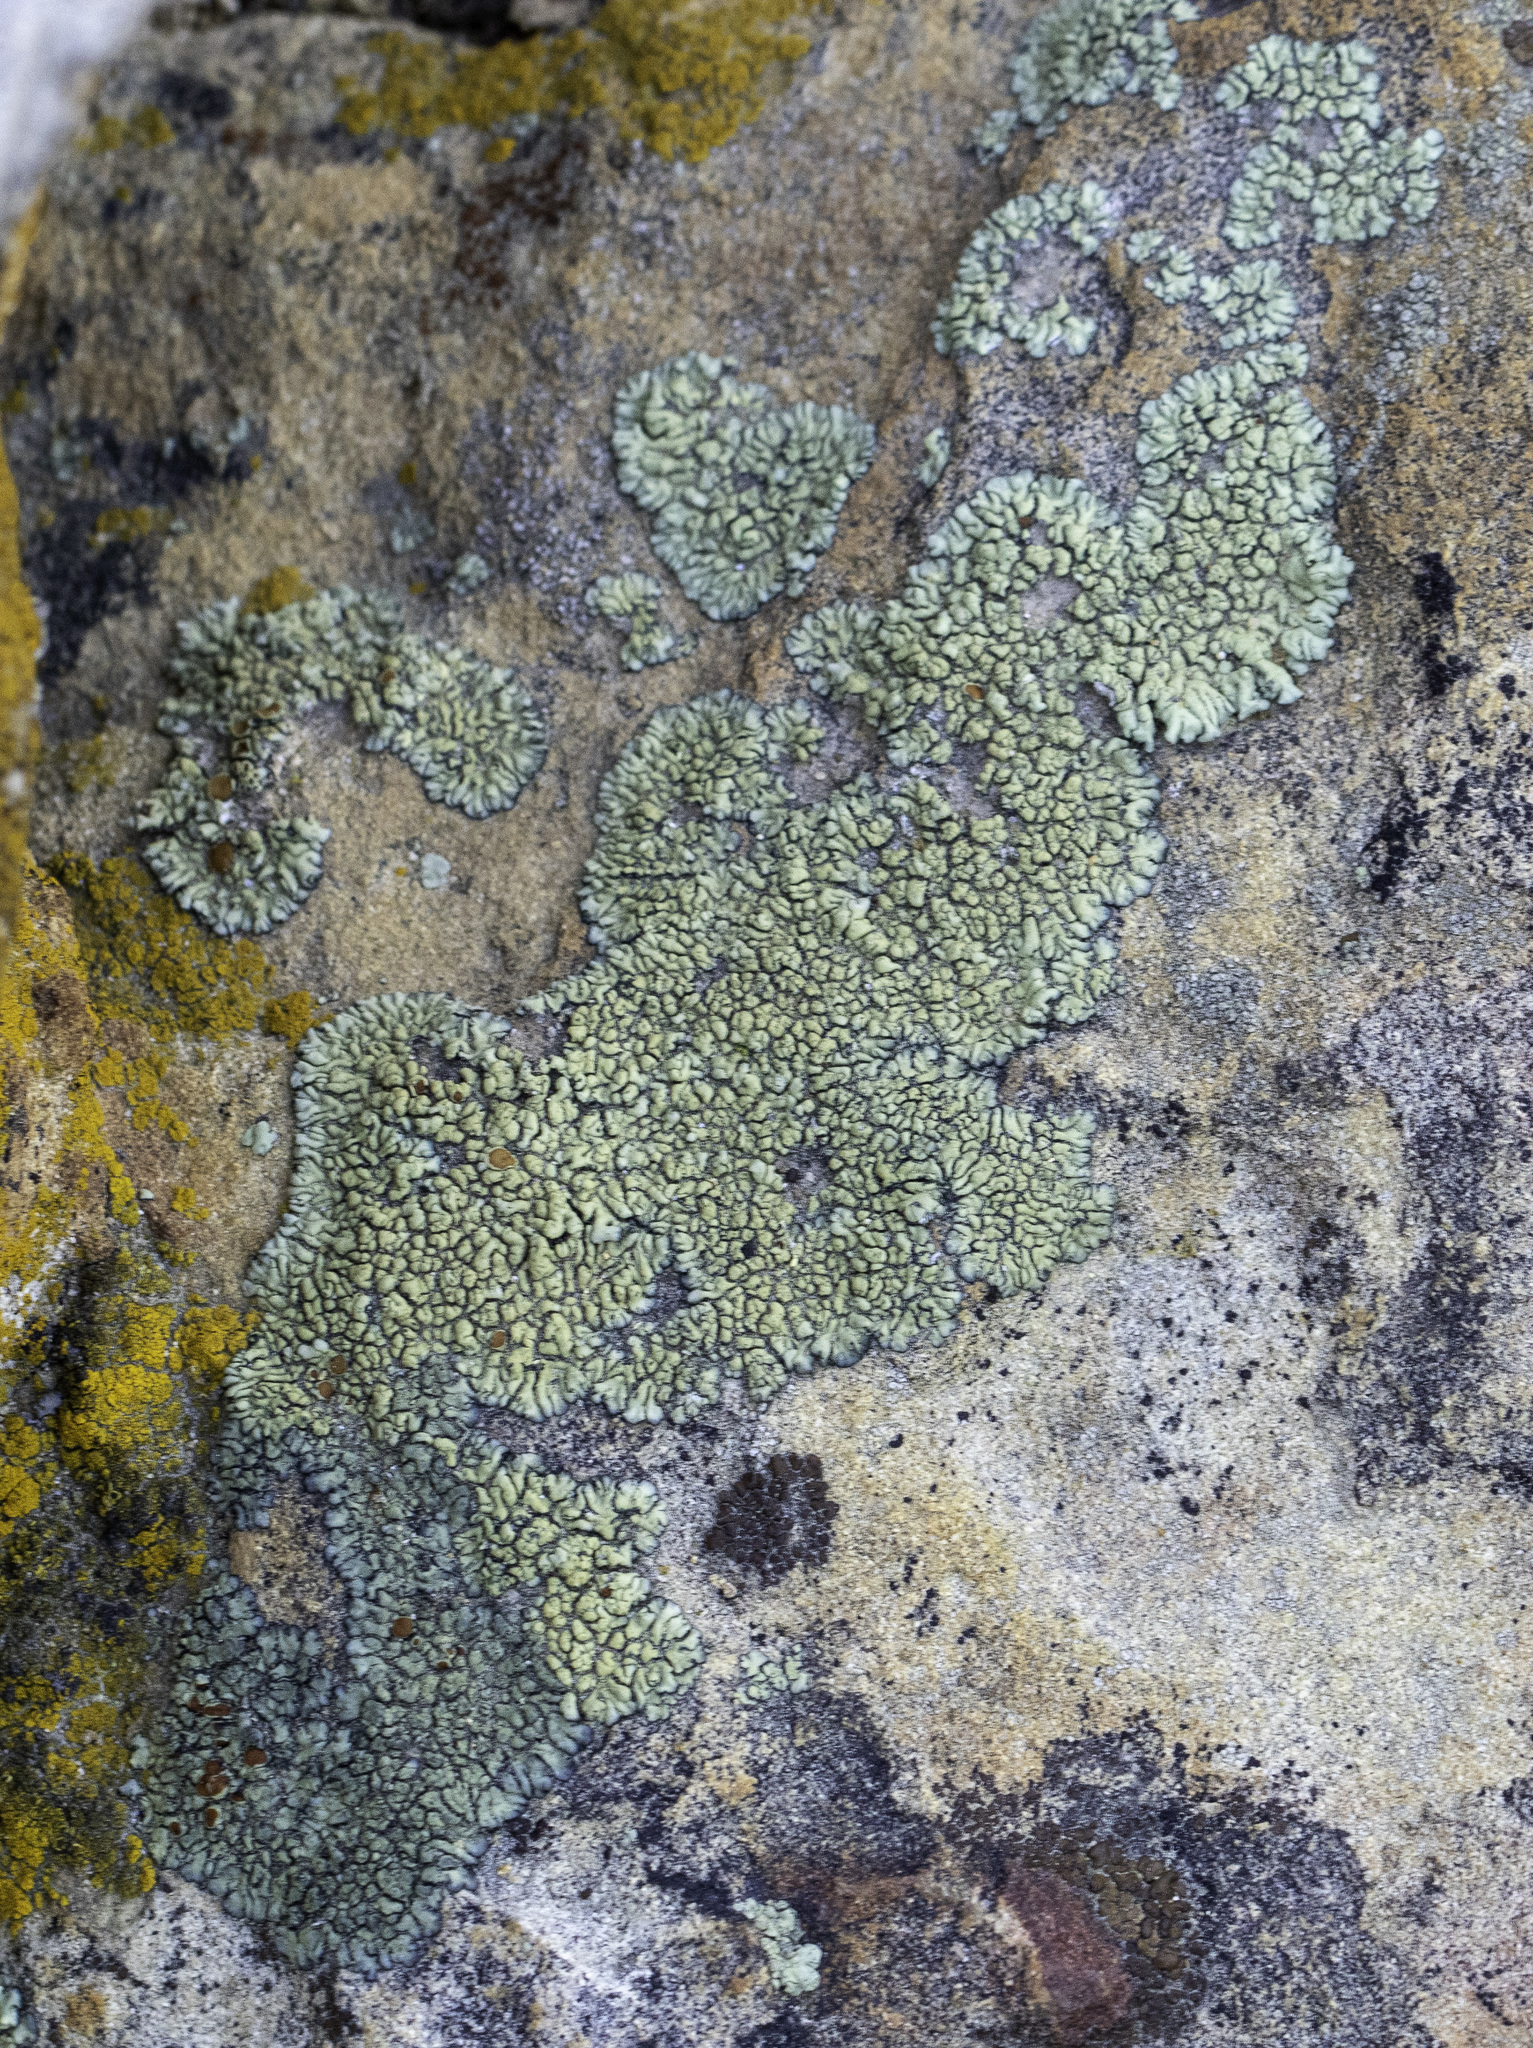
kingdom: Fungi
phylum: Ascomycota
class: Lecanoromycetes
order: Lecanorales
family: Lecanoraceae
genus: Protoparmeliopsis
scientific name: Protoparmeliopsis sierrae
